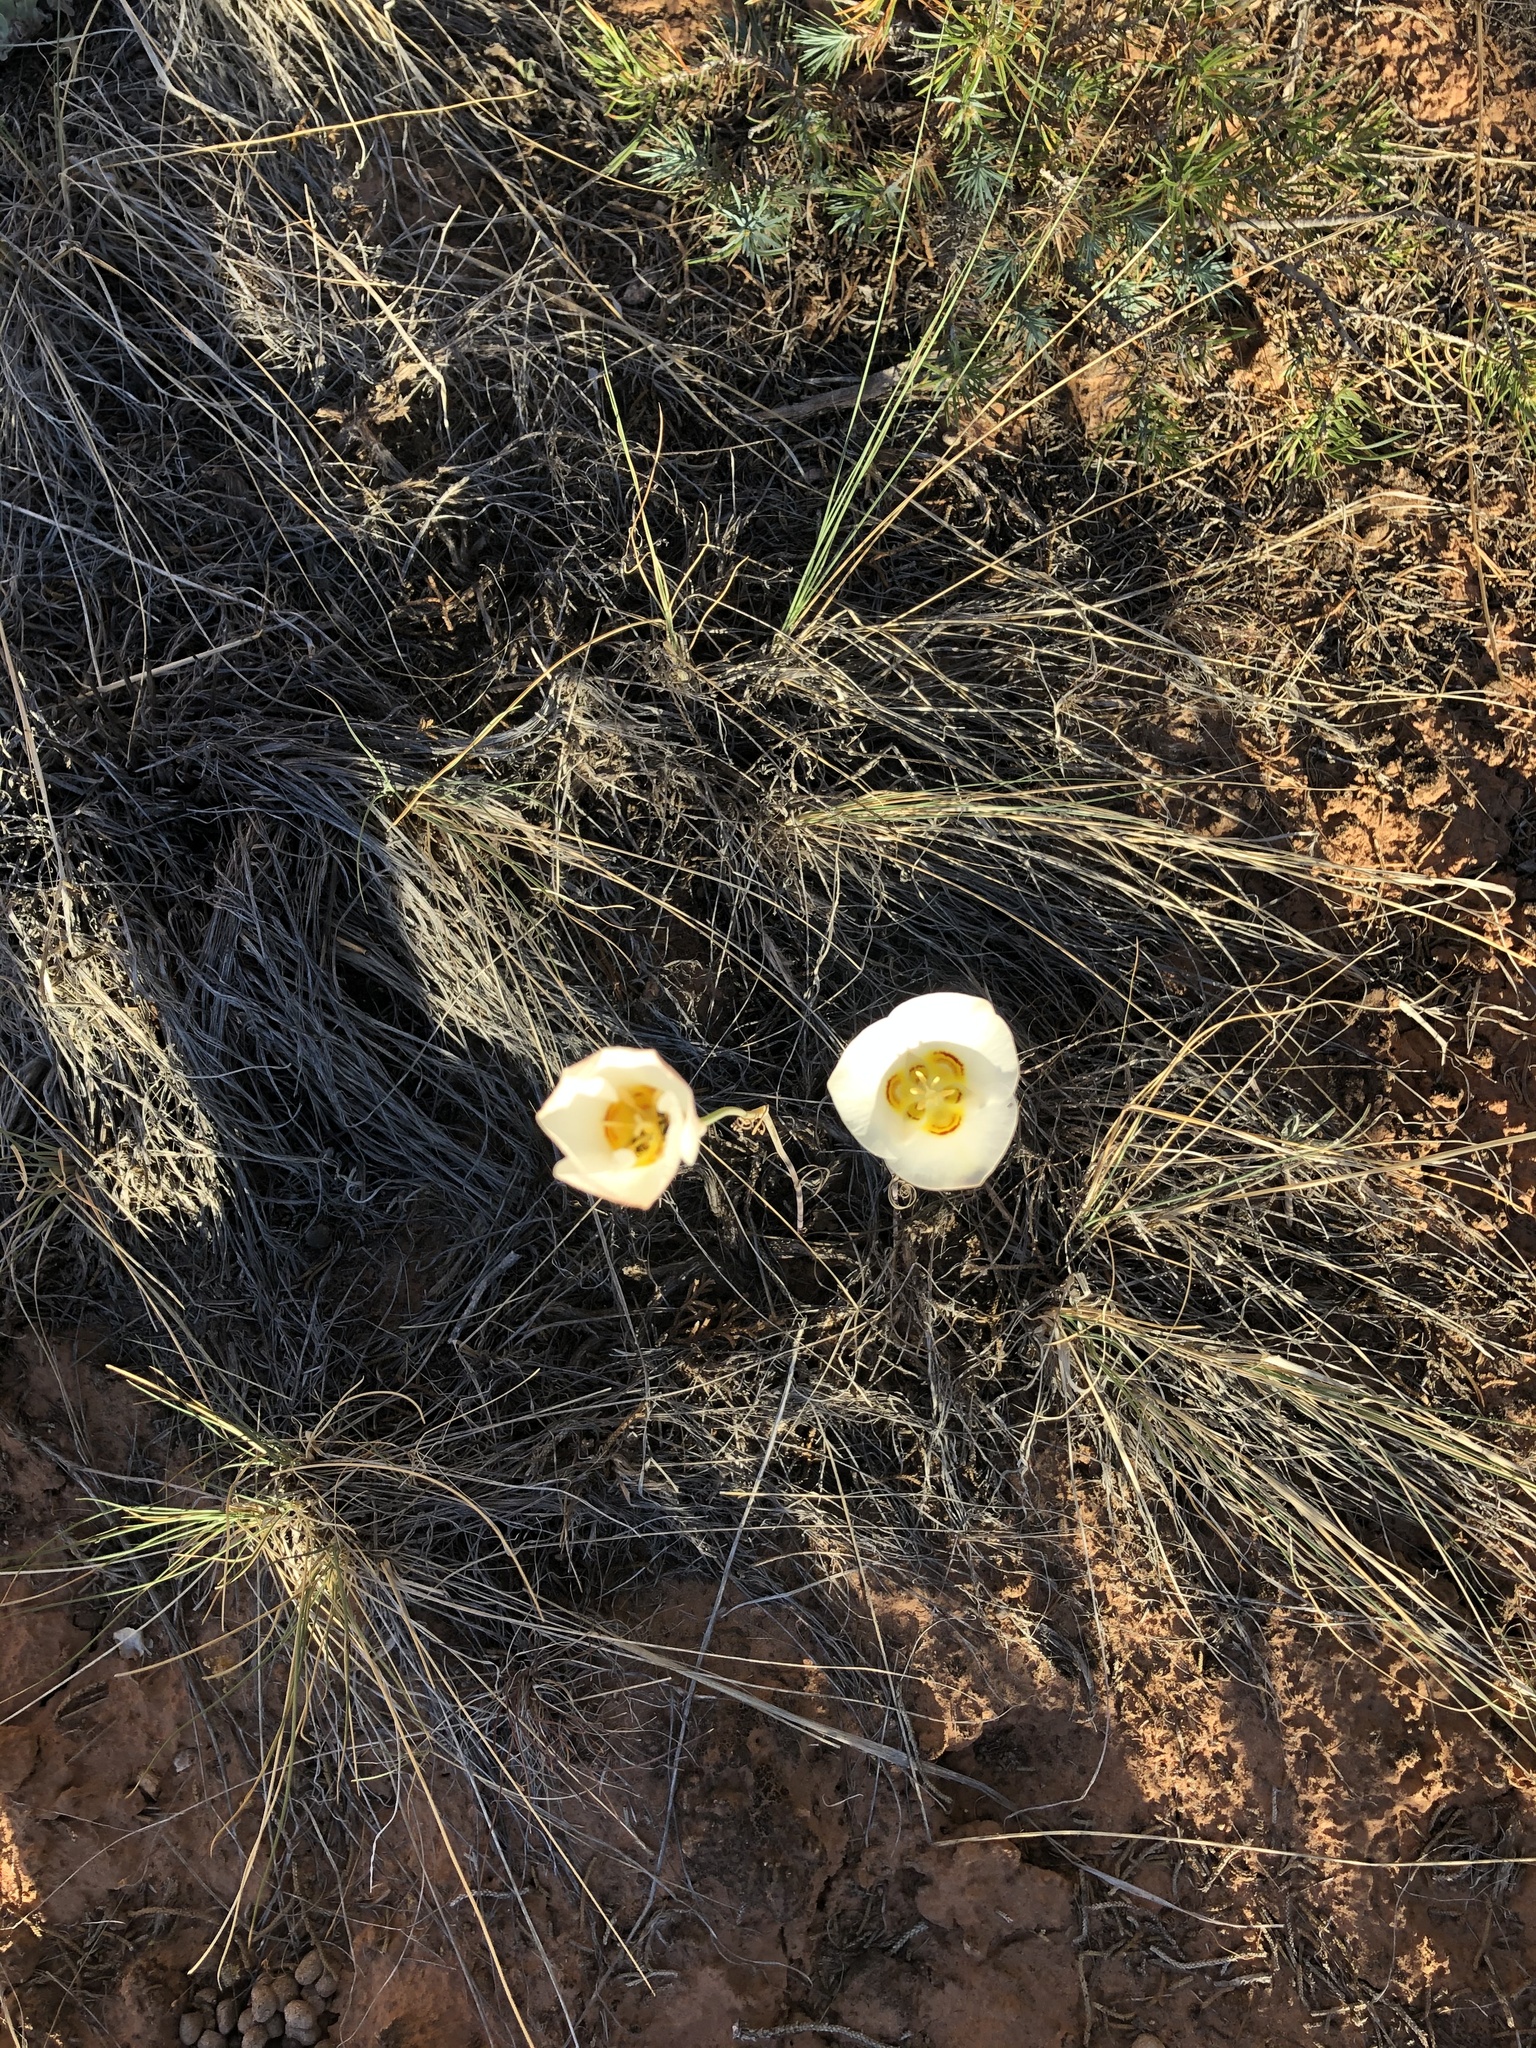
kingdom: Plantae
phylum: Tracheophyta
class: Liliopsida
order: Liliales
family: Liliaceae
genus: Calochortus
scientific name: Calochortus nuttallii
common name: Sego-lily
